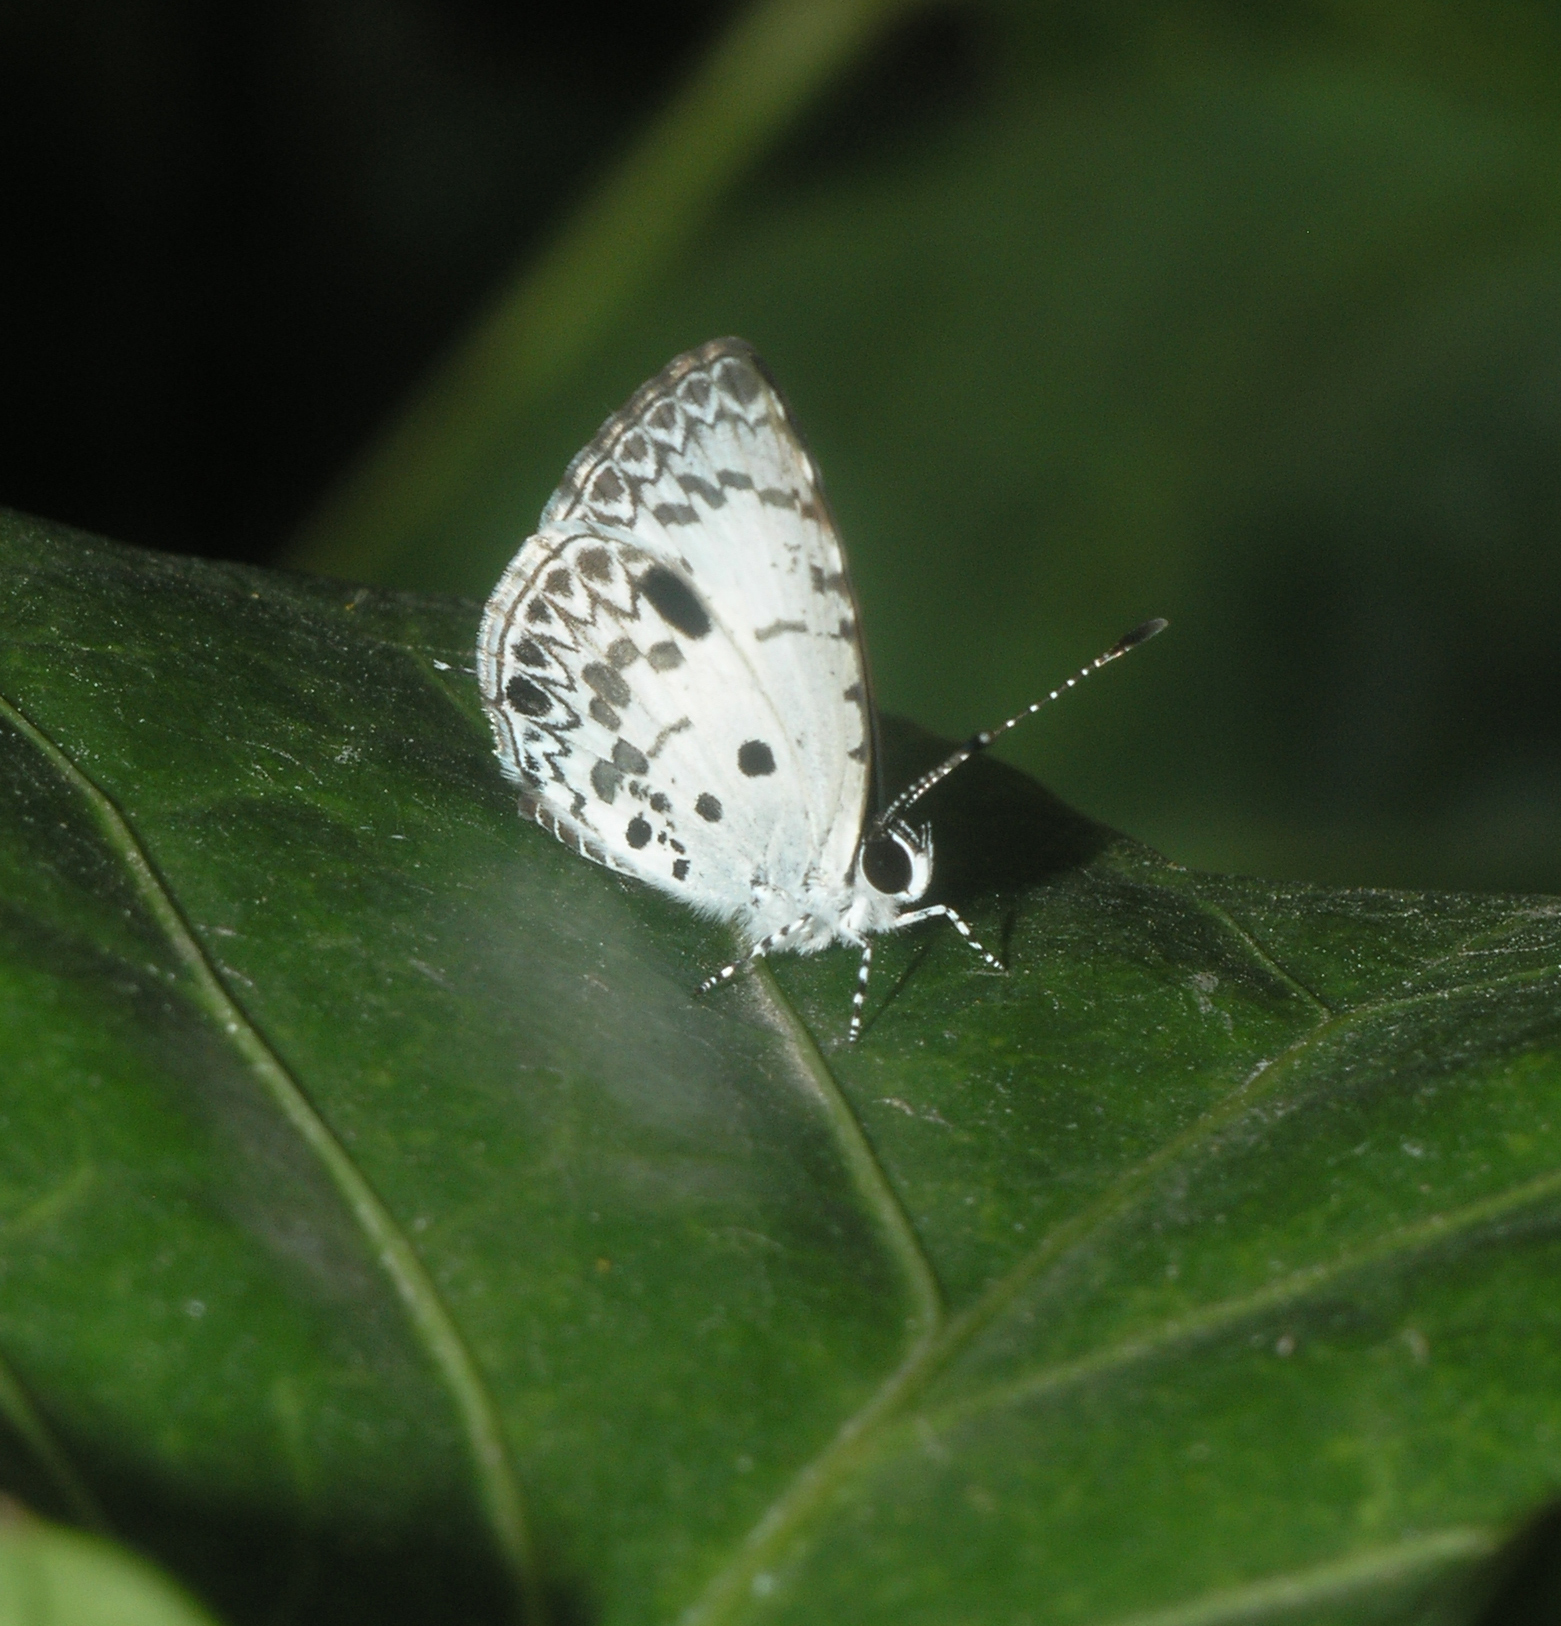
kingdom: Animalia
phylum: Arthropoda
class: Insecta
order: Lepidoptera
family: Lycaenidae
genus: Megisba
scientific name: Megisba malaya
